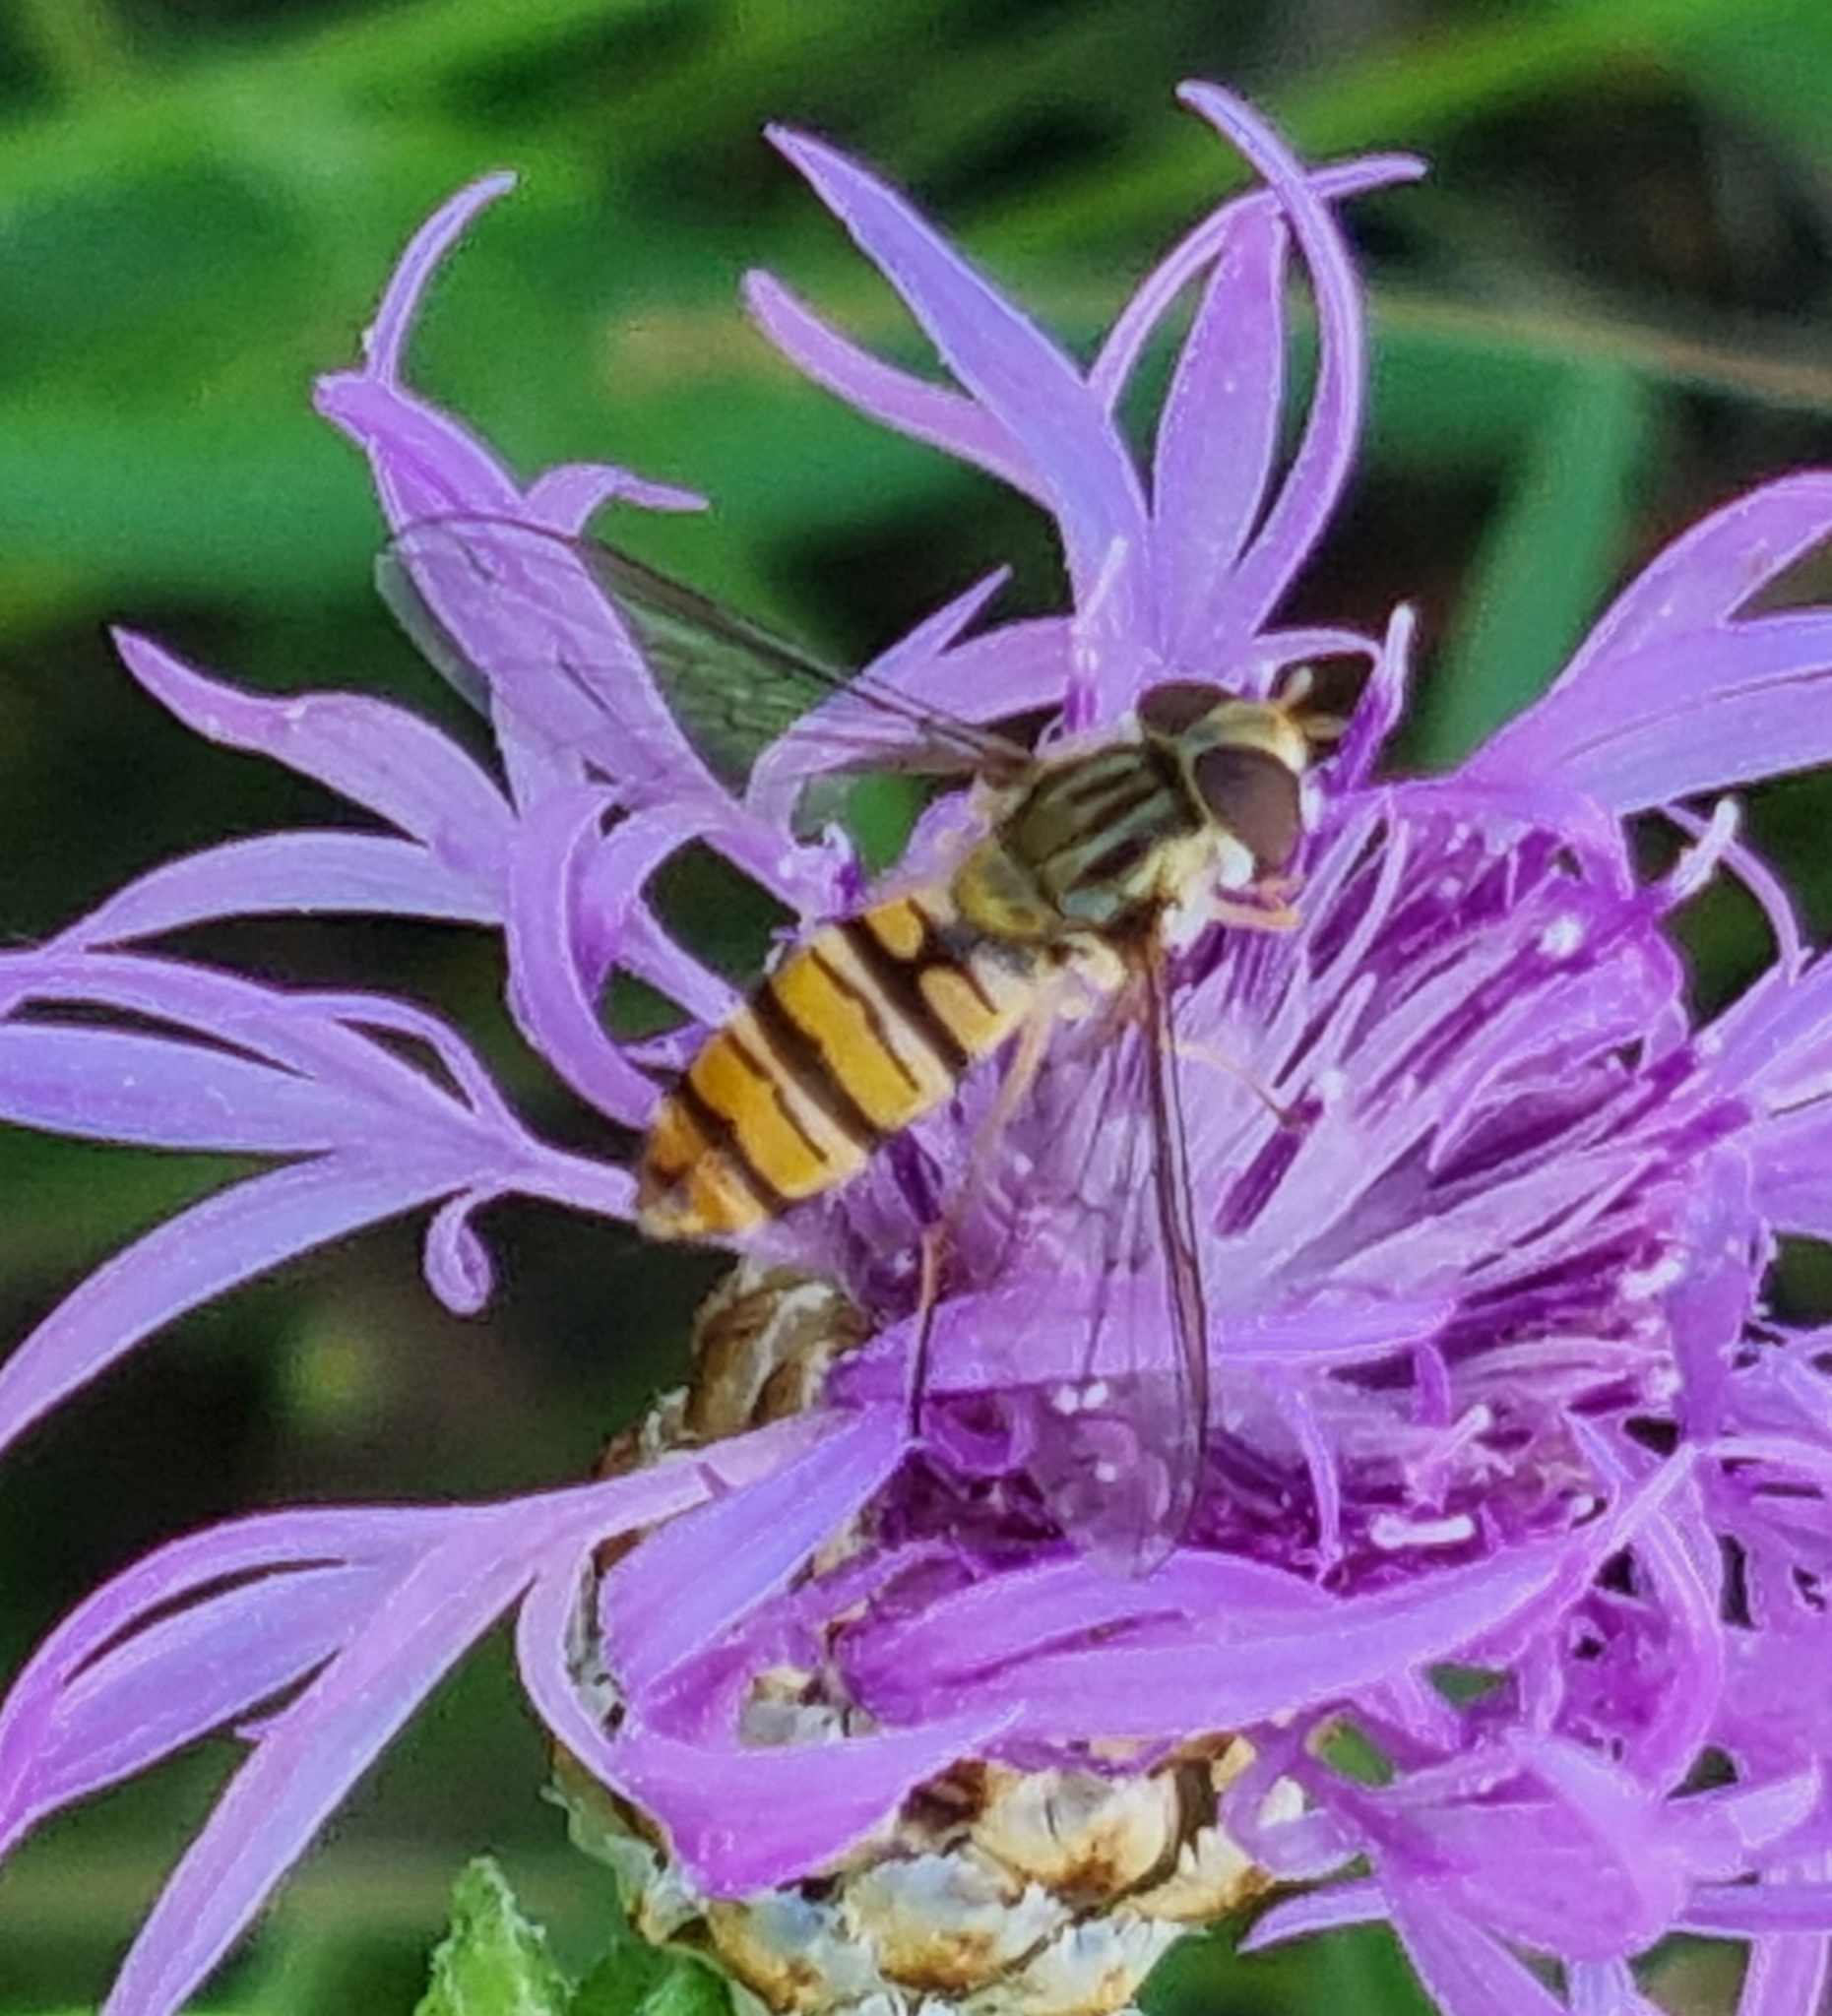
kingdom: Animalia
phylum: Arthropoda
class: Insecta
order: Diptera
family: Syrphidae
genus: Episyrphus
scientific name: Episyrphus balteatus
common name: Marmalade hoverfly
